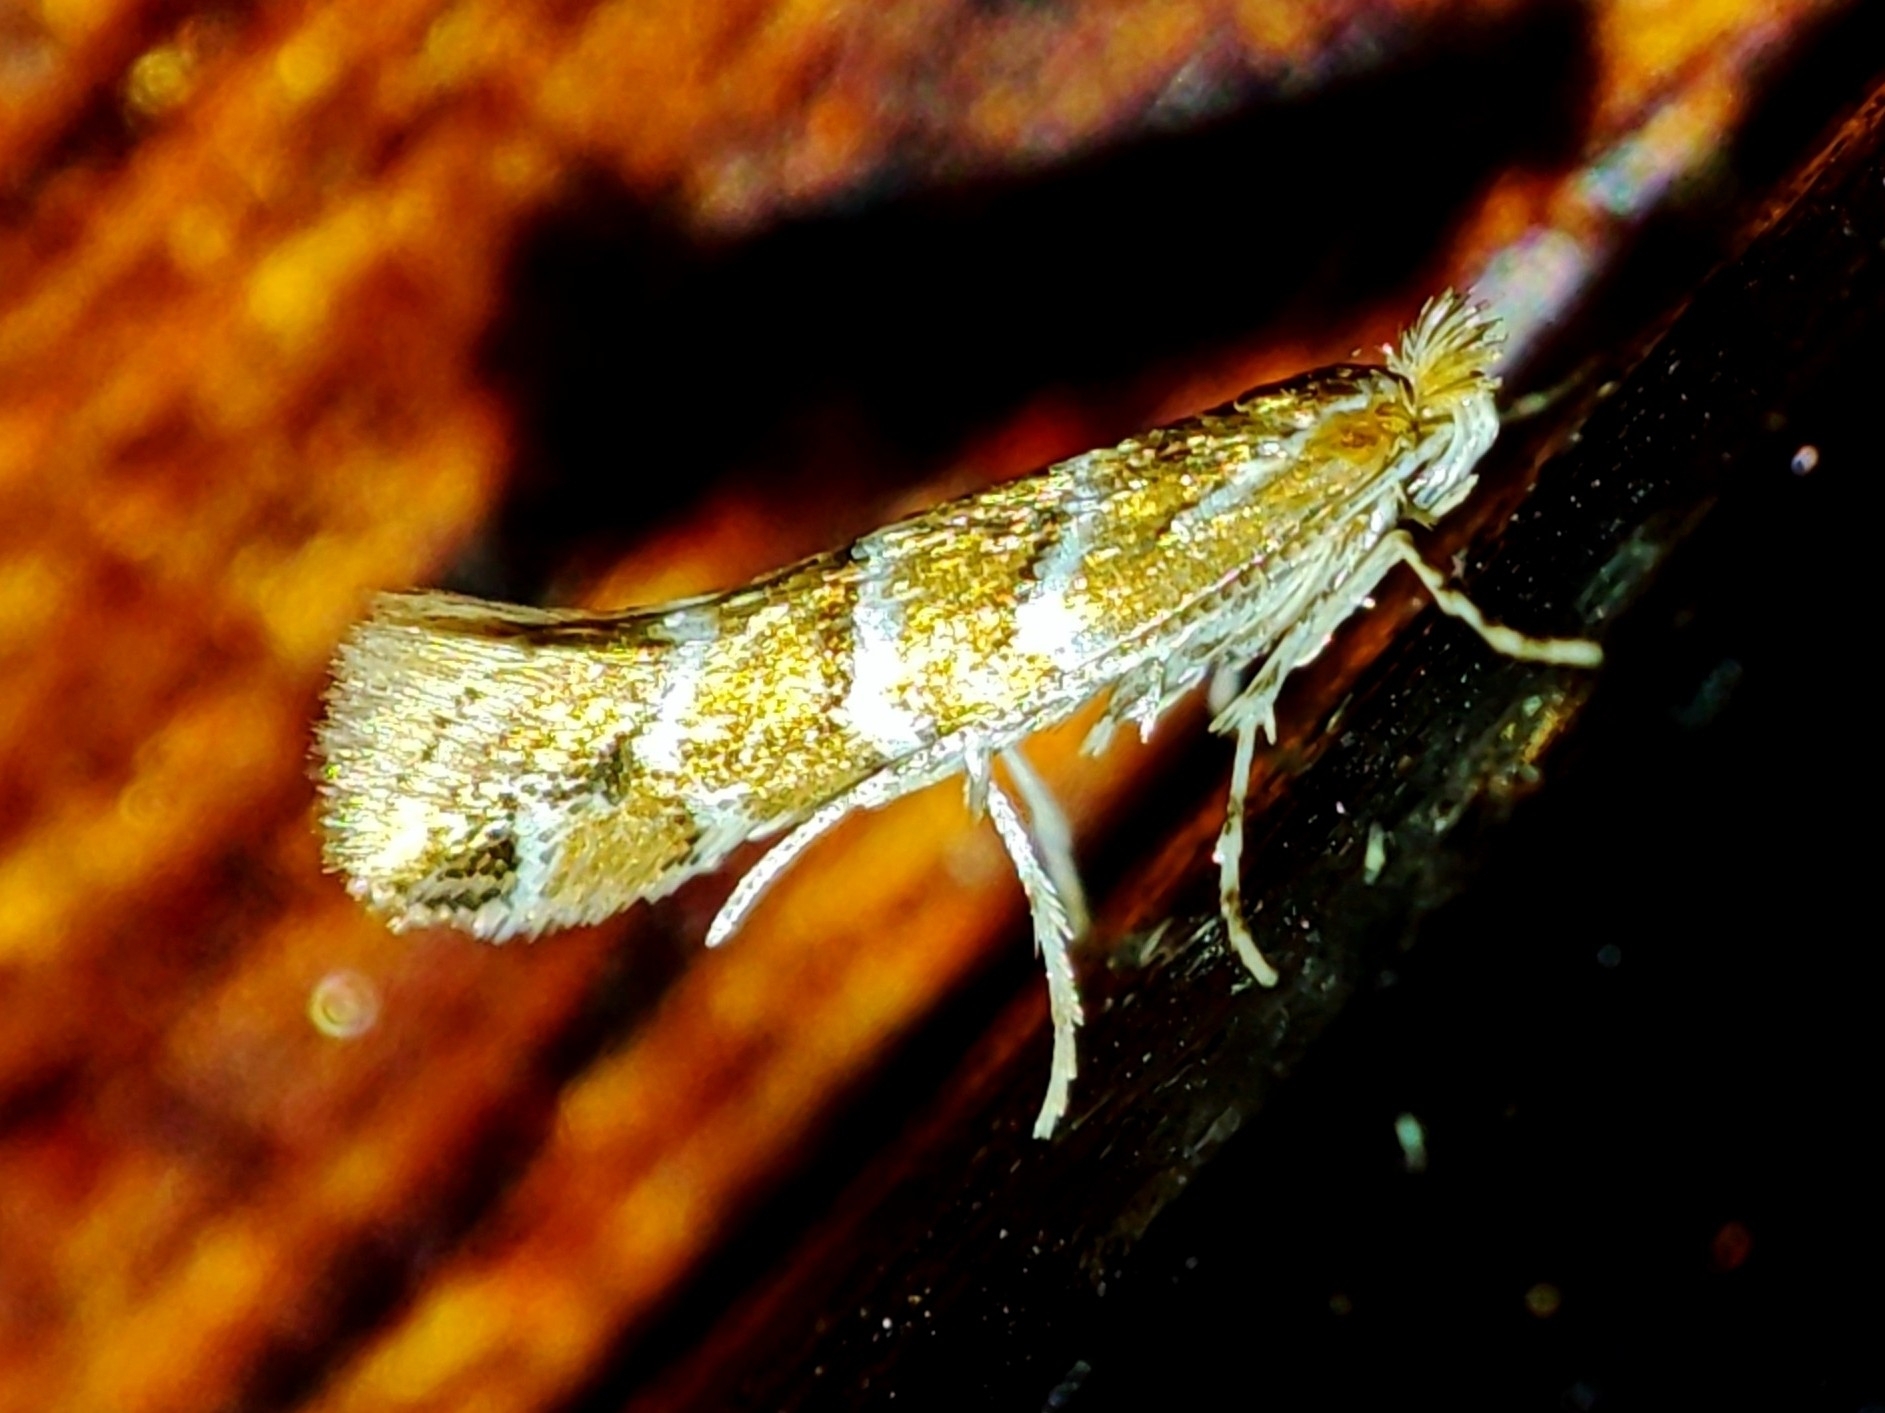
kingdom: Animalia
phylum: Arthropoda
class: Insecta
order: Lepidoptera
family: Gracillariidae
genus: Cameraria
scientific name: Cameraria ohridella
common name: Horse-chestnut leaf-miner
